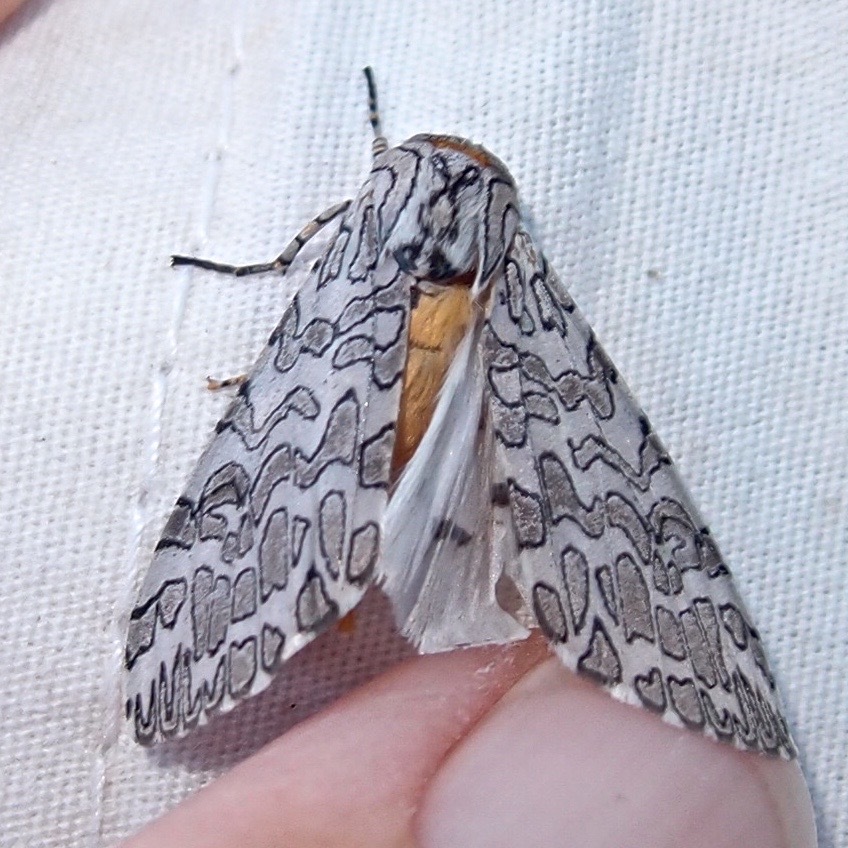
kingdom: Animalia
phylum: Arthropoda
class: Insecta
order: Lepidoptera
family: Erebidae
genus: Hypercompe
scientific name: Hypercompe suffusa
